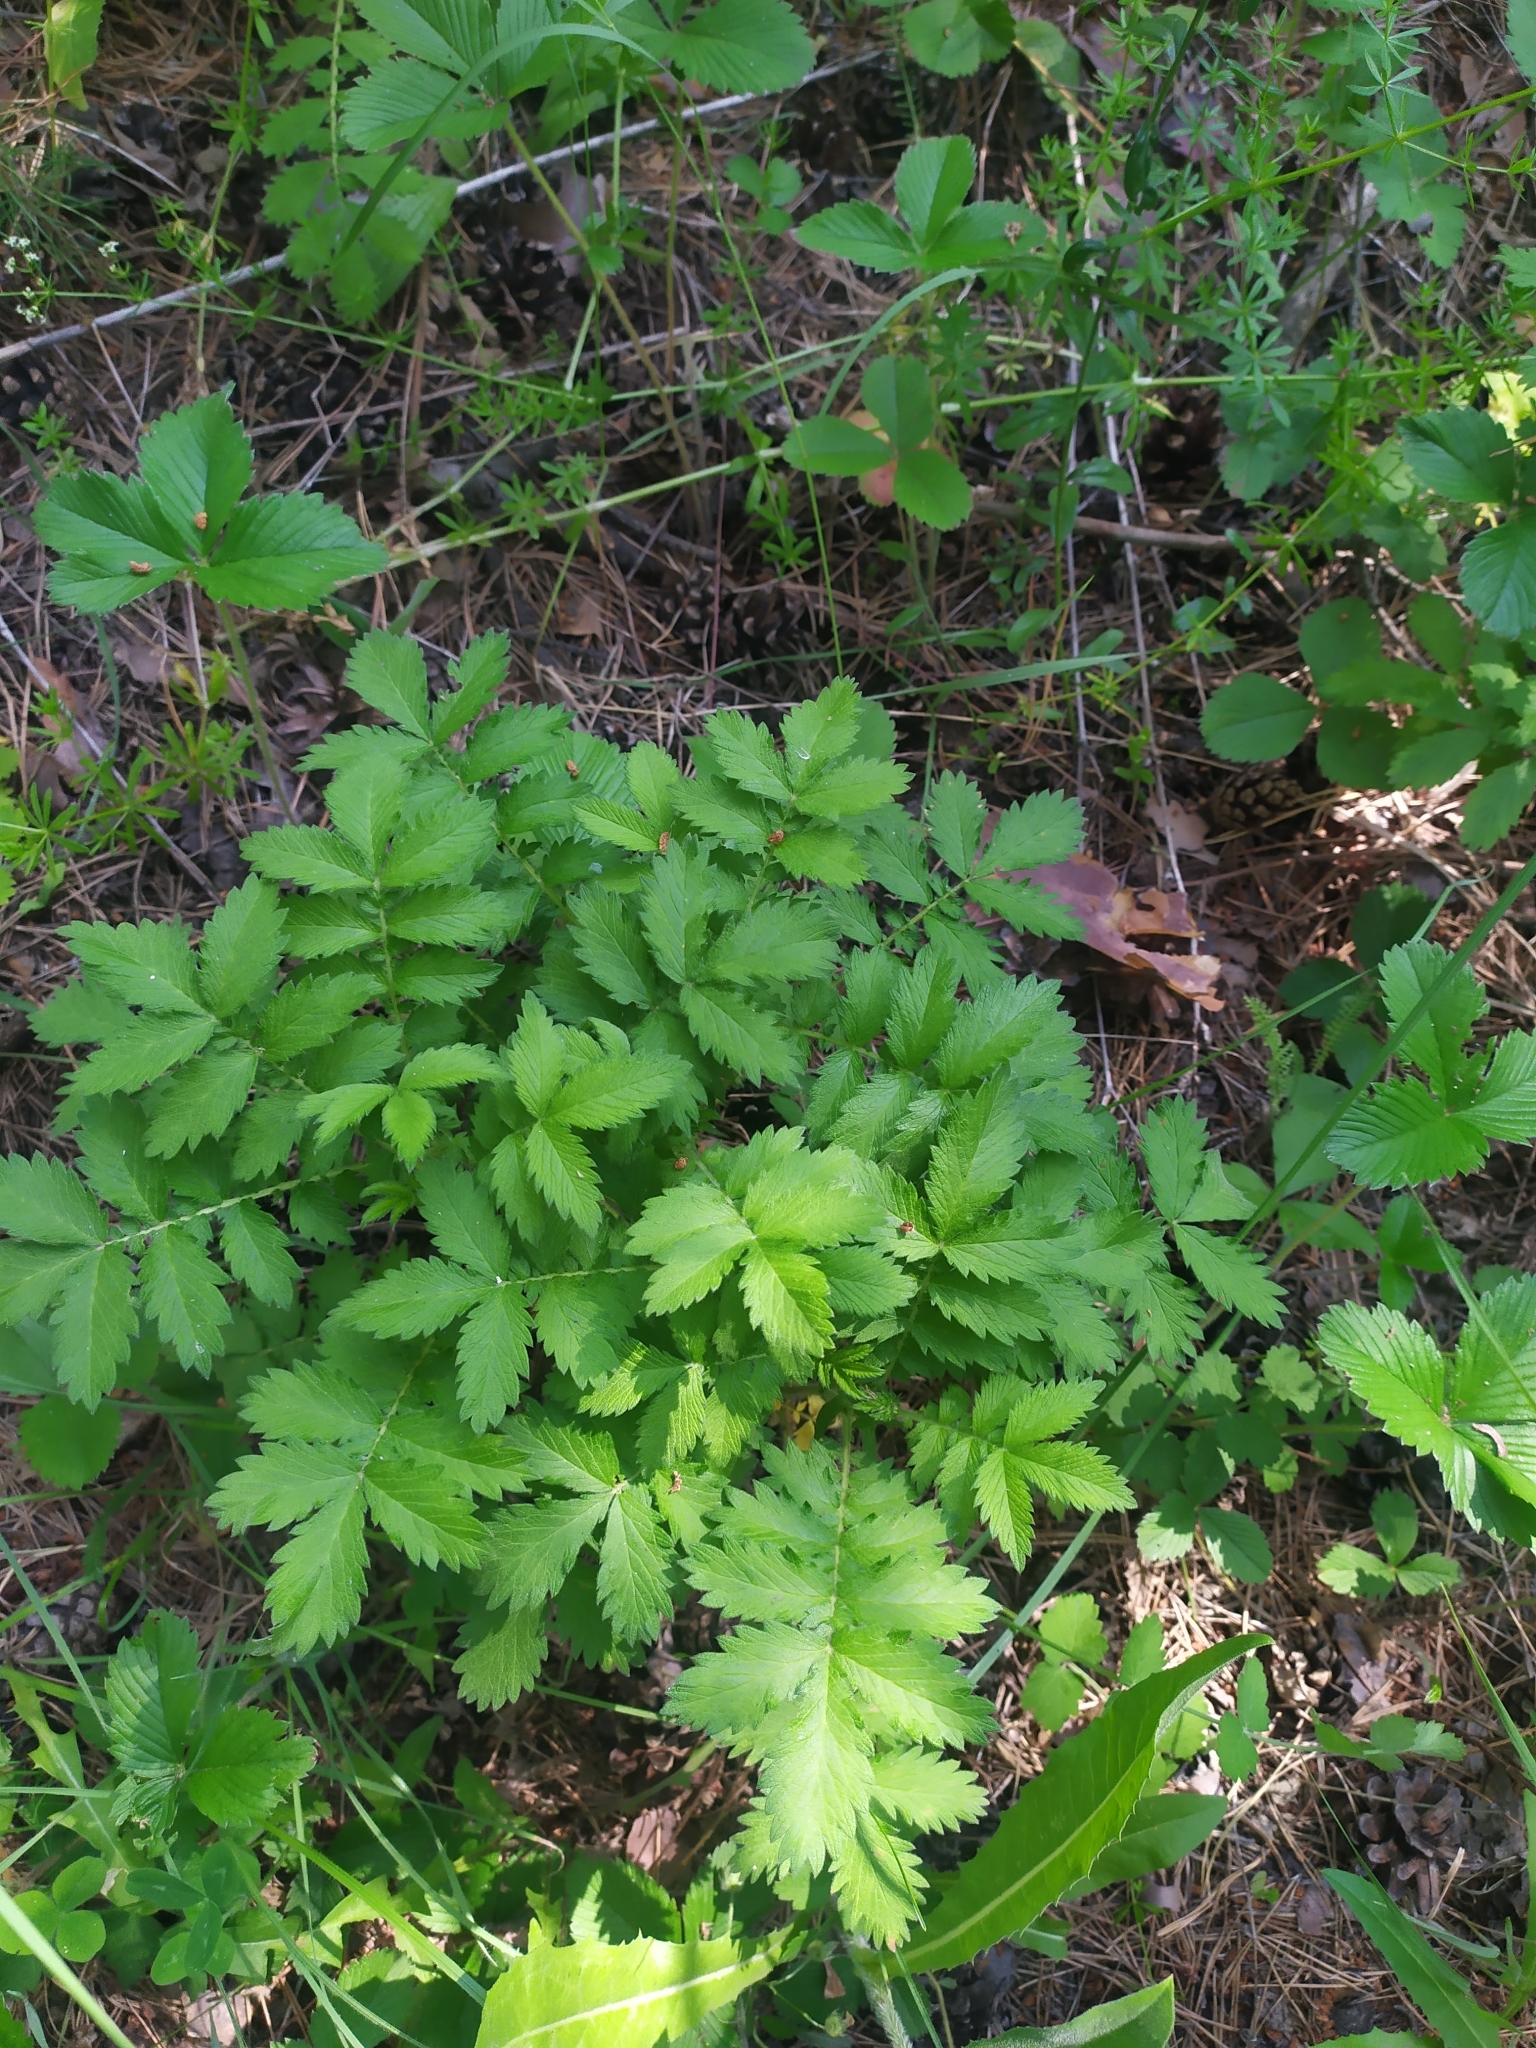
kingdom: Plantae
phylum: Tracheophyta
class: Magnoliopsida
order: Rosales
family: Rosaceae
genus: Agrimonia
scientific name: Agrimonia eupatoria
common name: Agrimony
